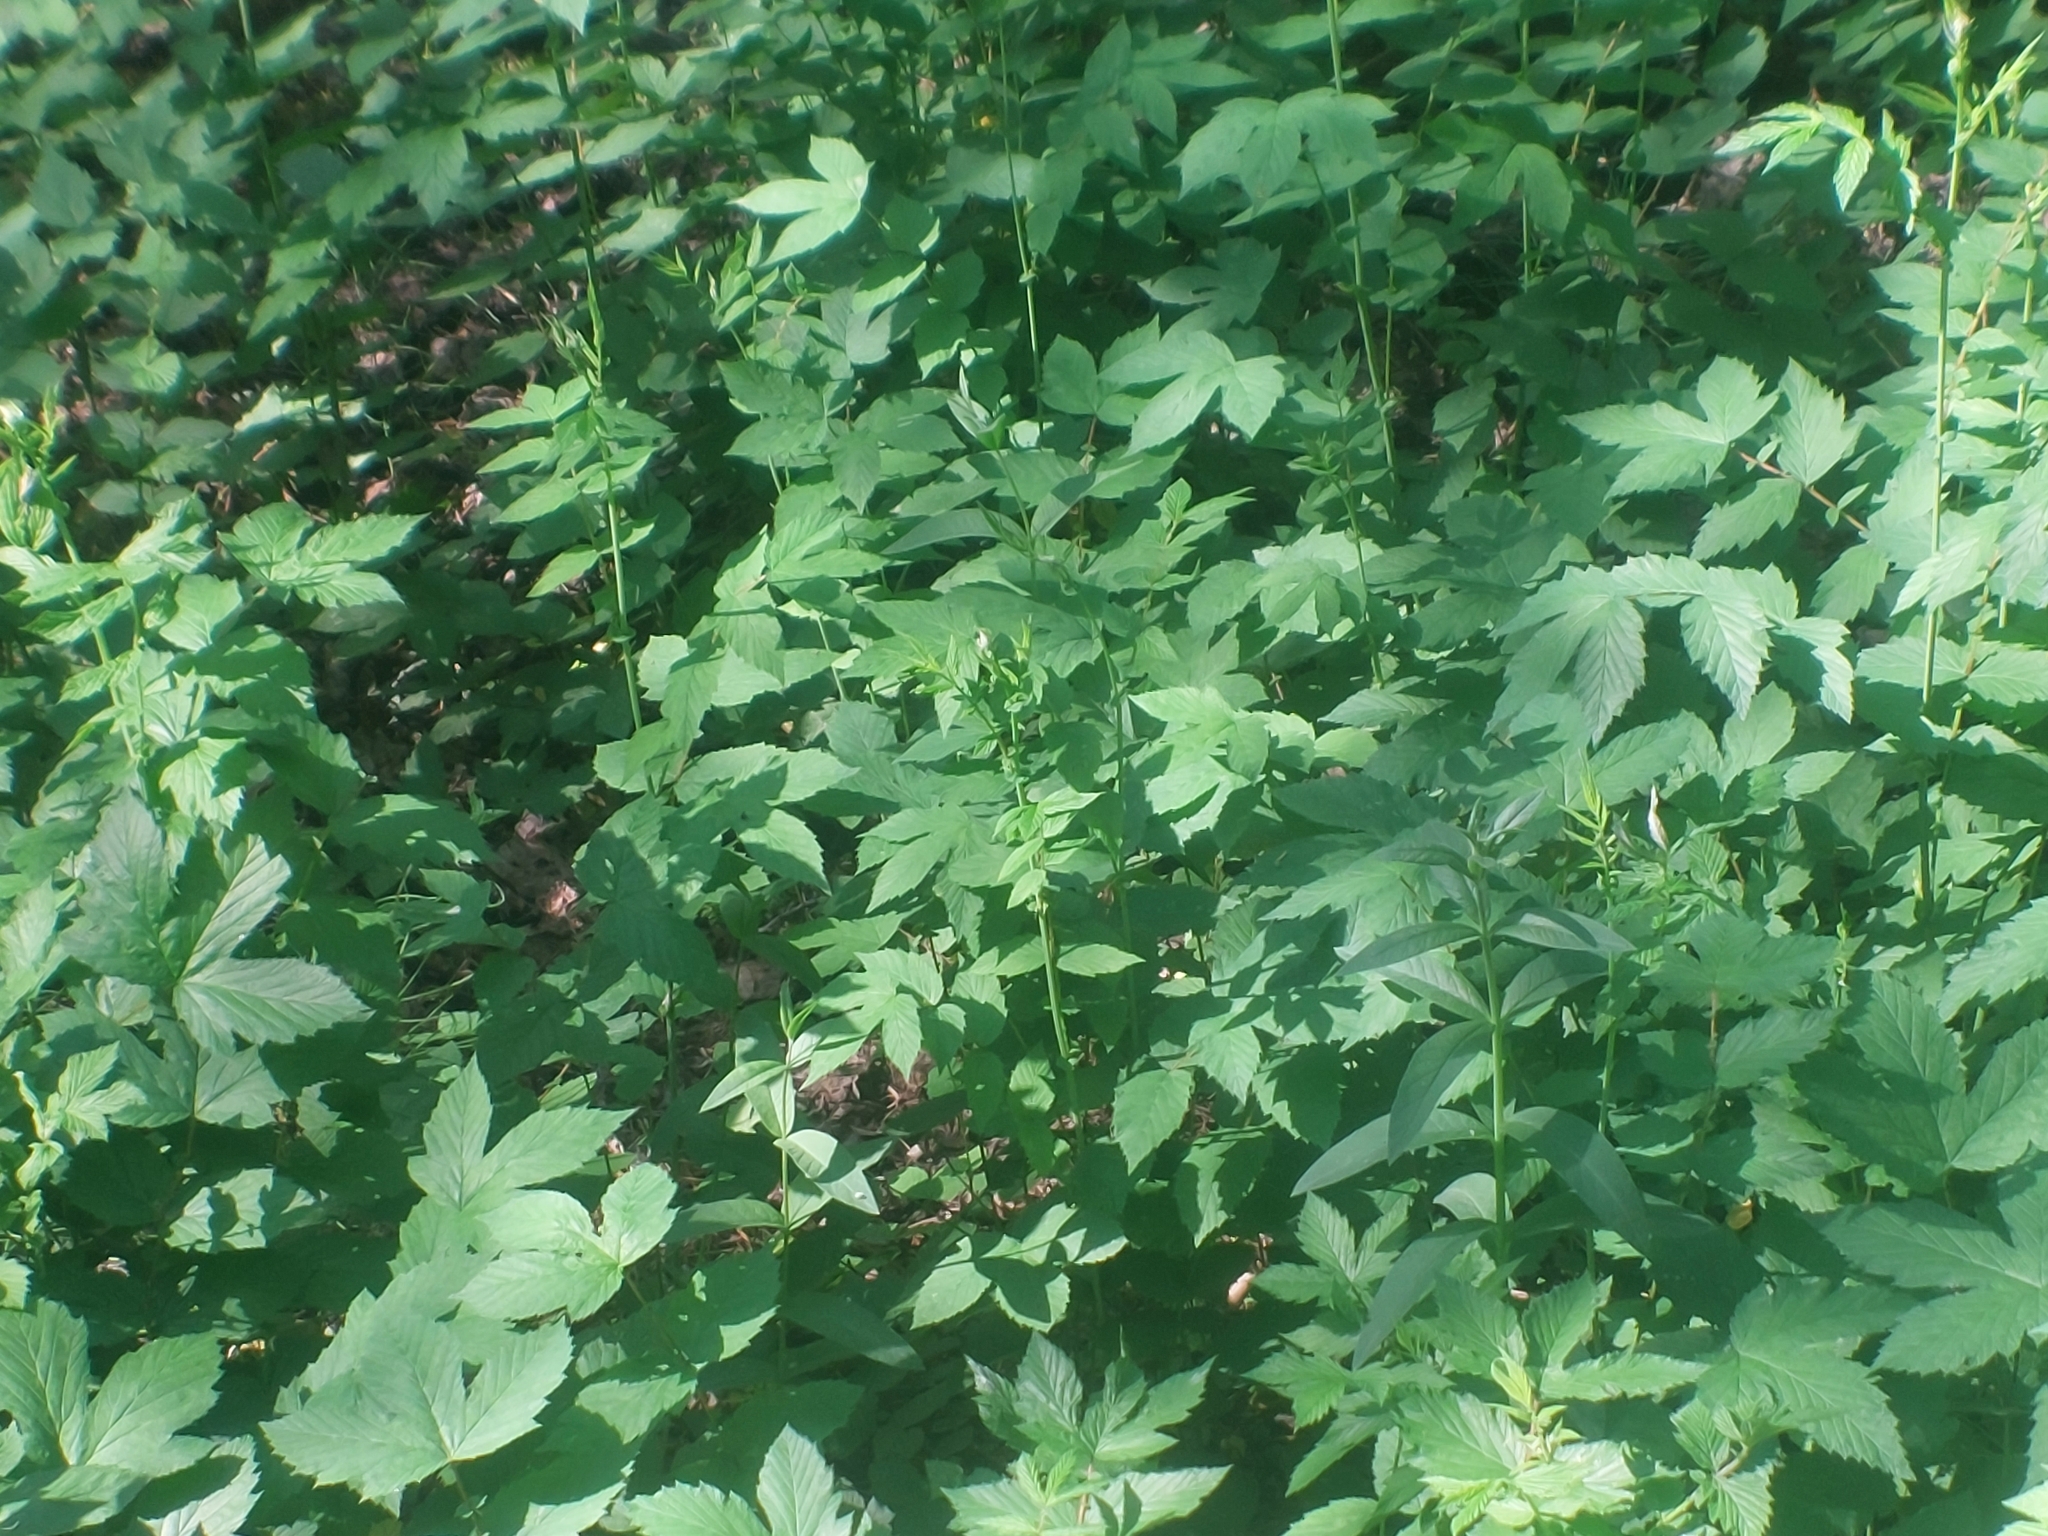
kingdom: Plantae
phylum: Tracheophyta
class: Magnoliopsida
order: Rosales
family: Rosaceae
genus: Filipendula
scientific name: Filipendula ulmaria
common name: Meadowsweet
